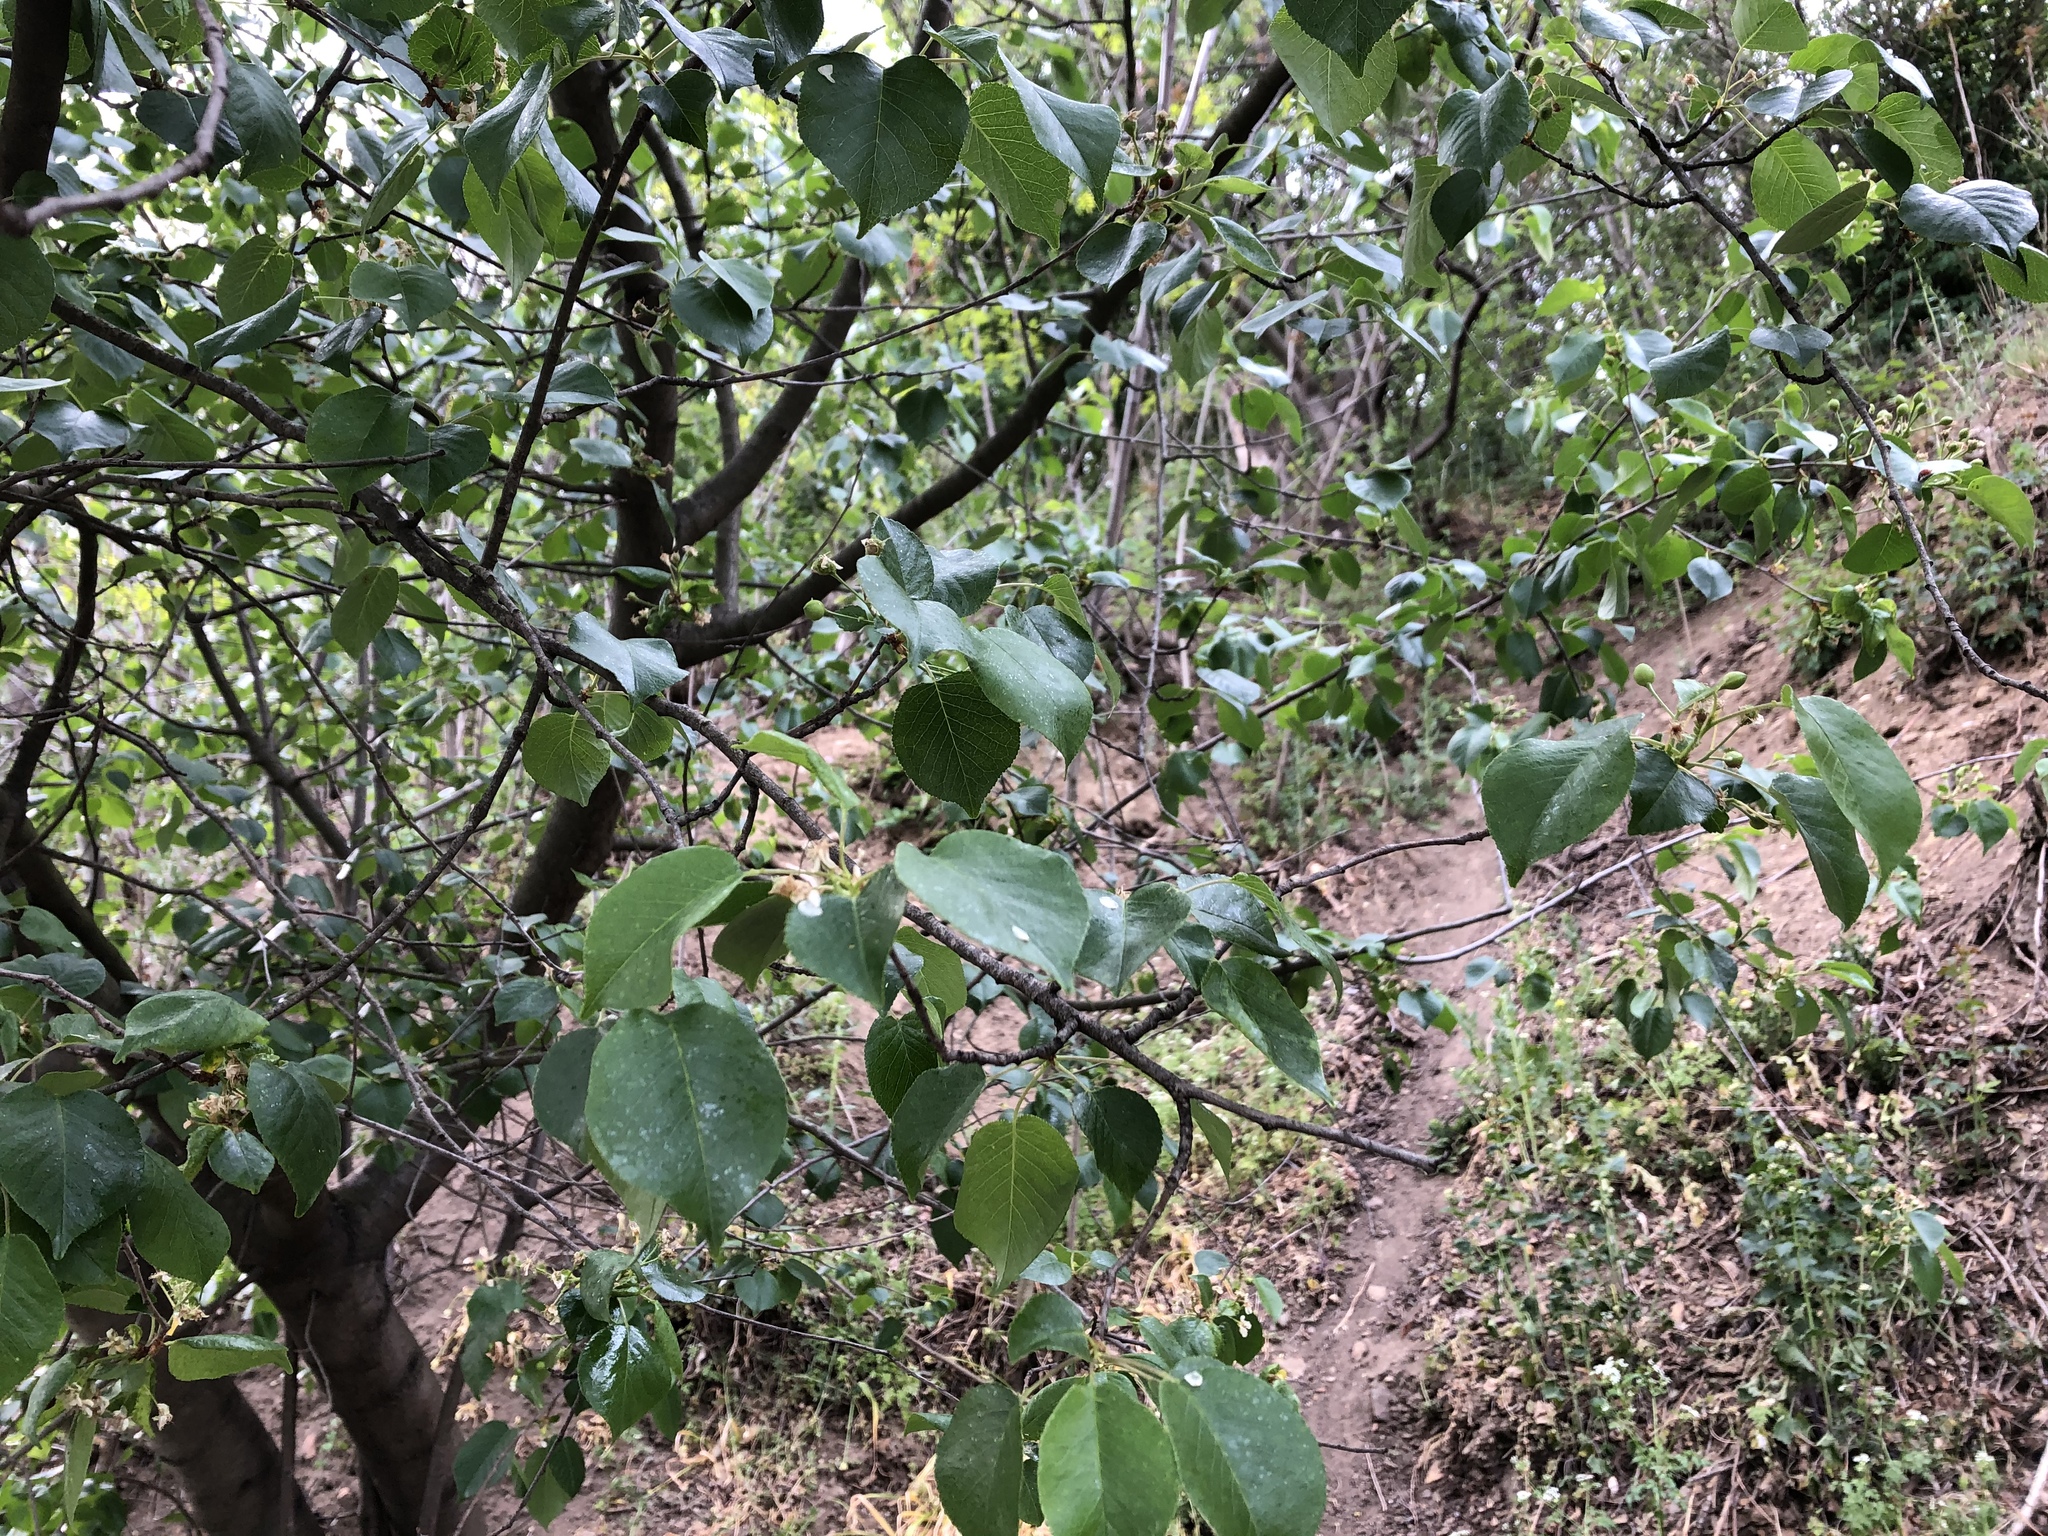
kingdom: Plantae
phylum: Tracheophyta
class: Magnoliopsida
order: Rosales
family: Rosaceae
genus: Prunus
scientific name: Prunus mahaleb
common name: Mahaleb cherry
